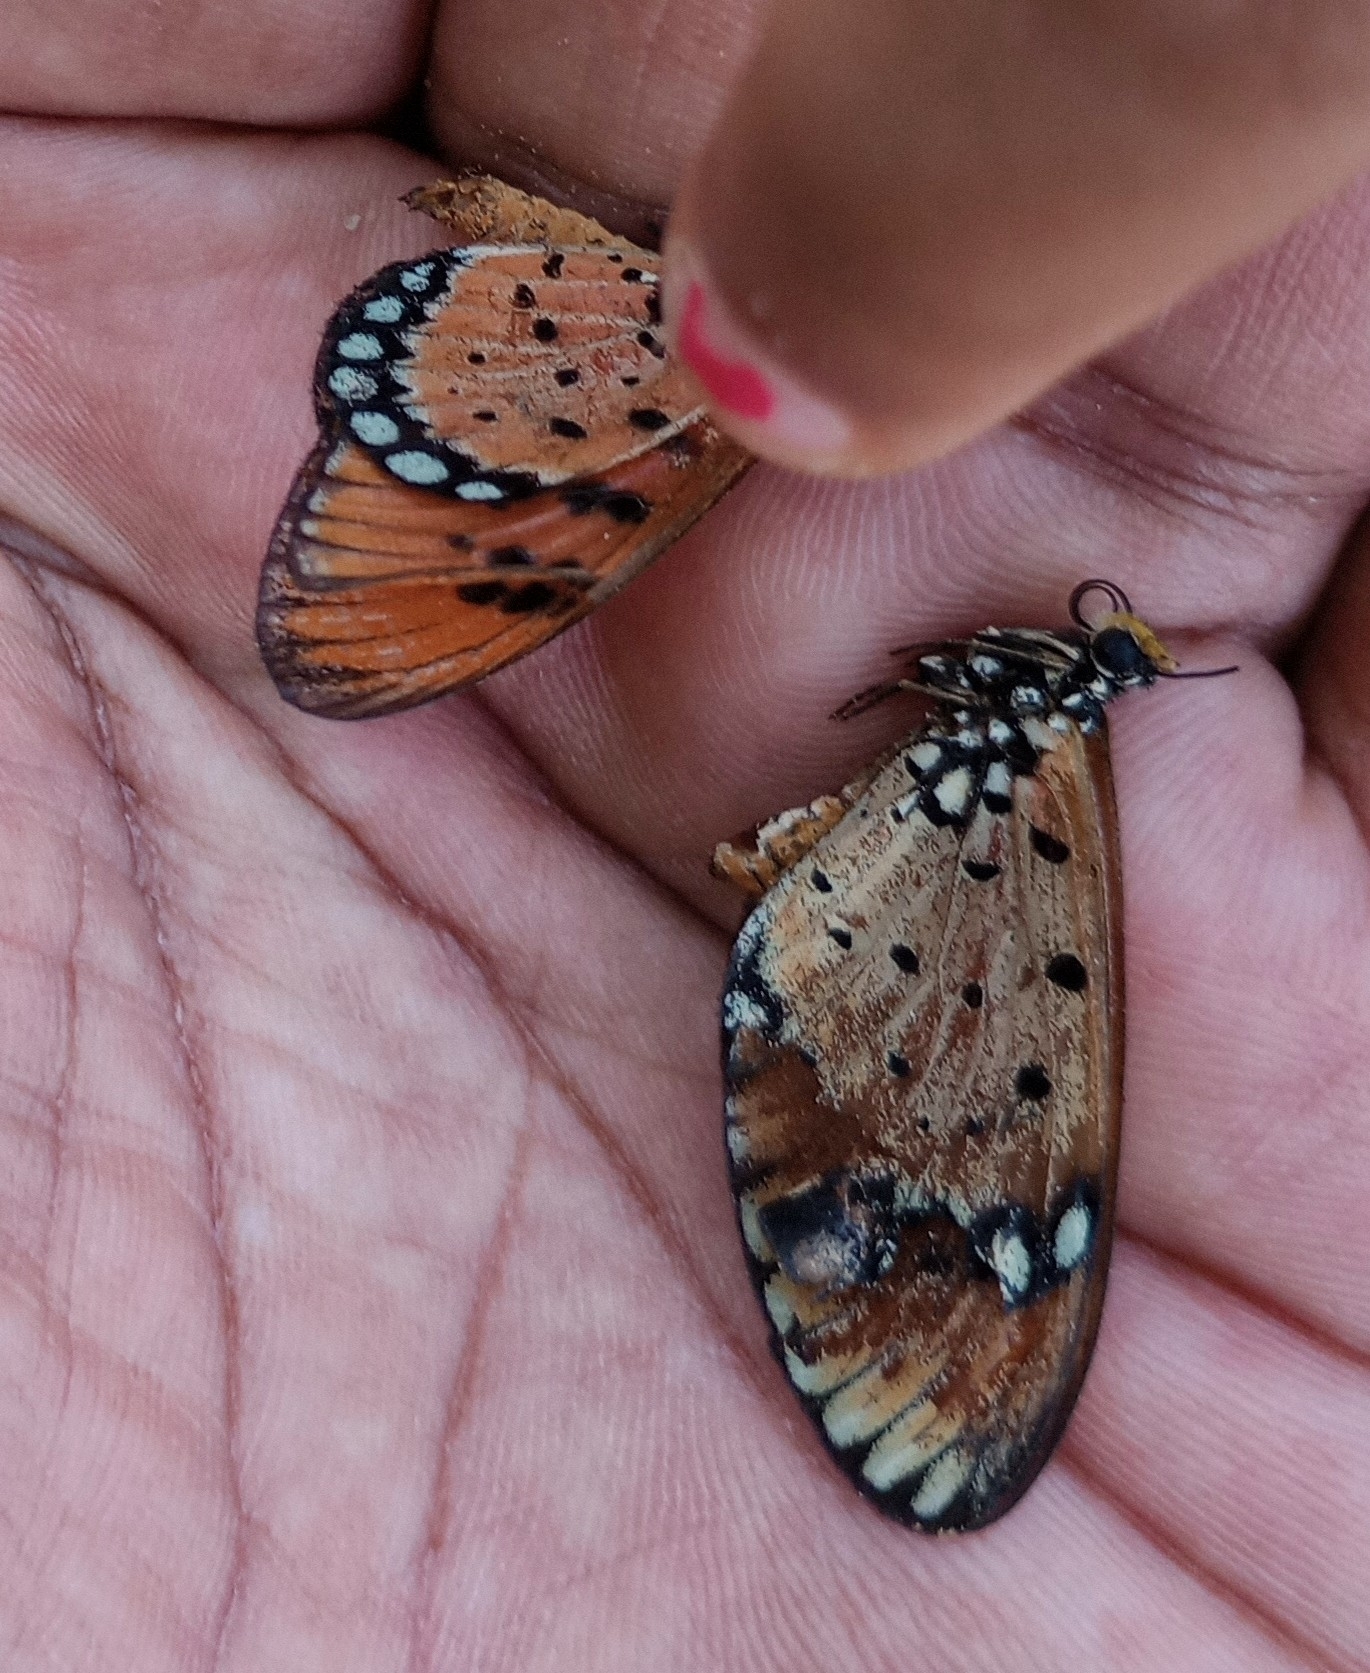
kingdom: Animalia
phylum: Arthropoda
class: Insecta
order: Lepidoptera
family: Nymphalidae
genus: Acraea
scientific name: Acraea terpsicore
